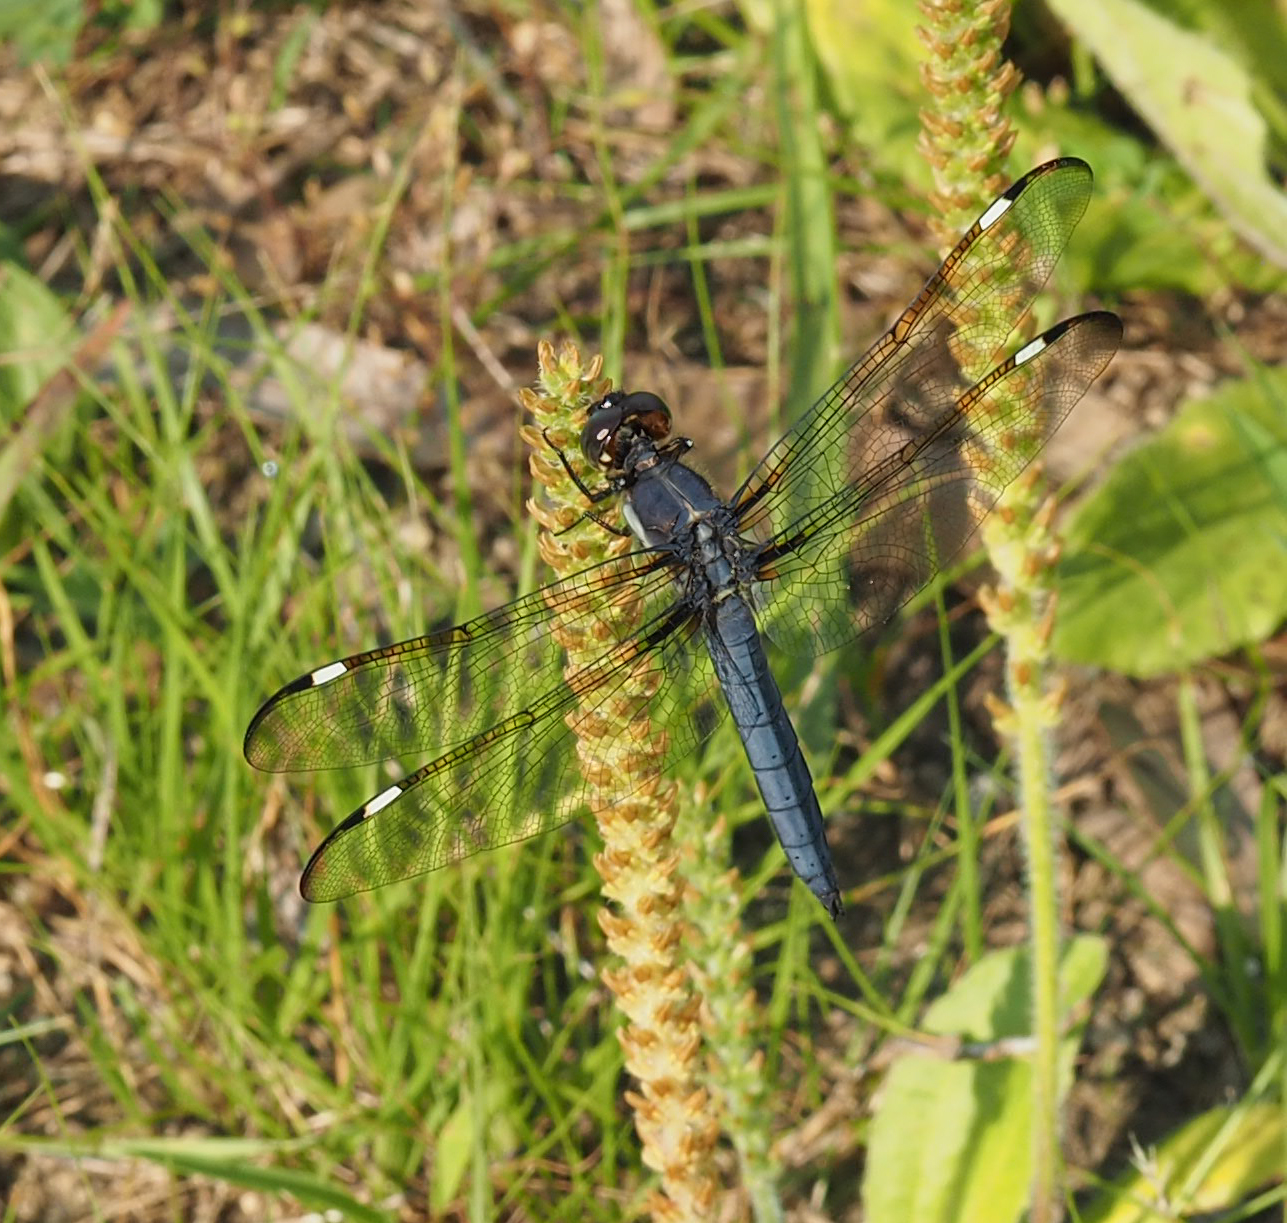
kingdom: Animalia
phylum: Arthropoda
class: Insecta
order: Odonata
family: Libellulidae
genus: Libellula
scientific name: Libellula cyanea
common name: Spangled skimmer
